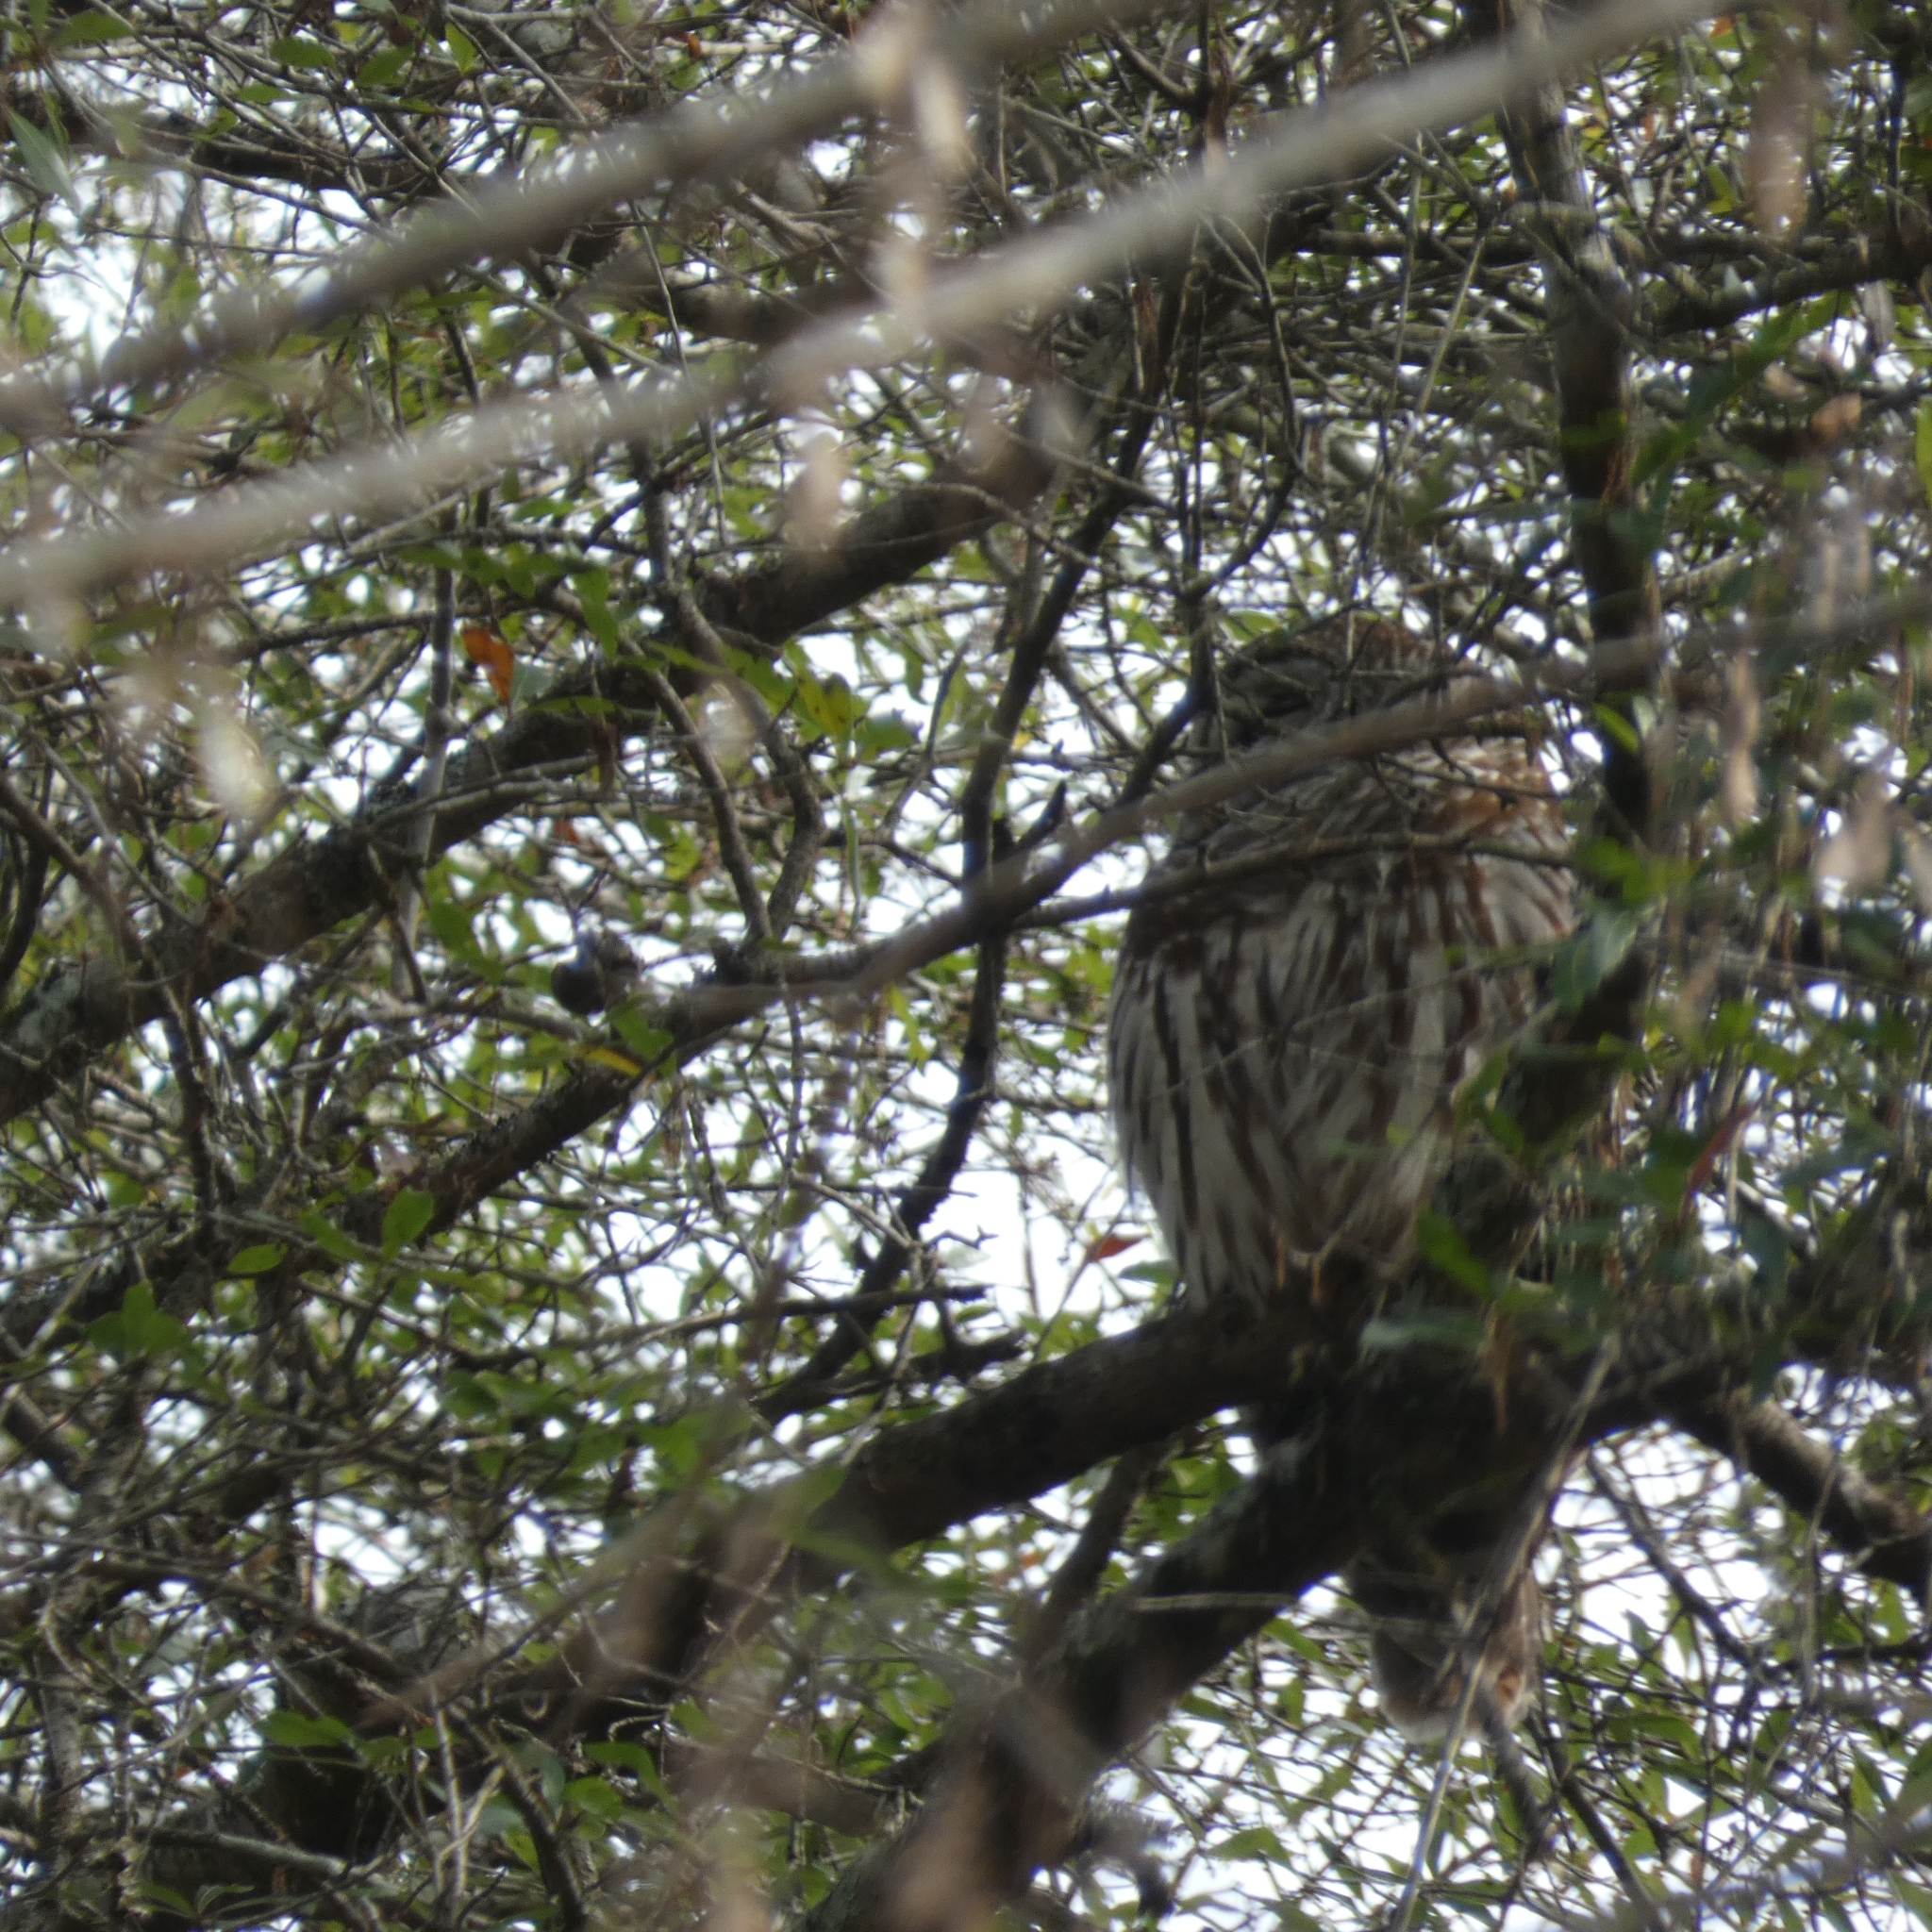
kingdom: Animalia
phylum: Chordata
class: Aves
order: Strigiformes
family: Strigidae
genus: Strix
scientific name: Strix varia
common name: Barred owl
